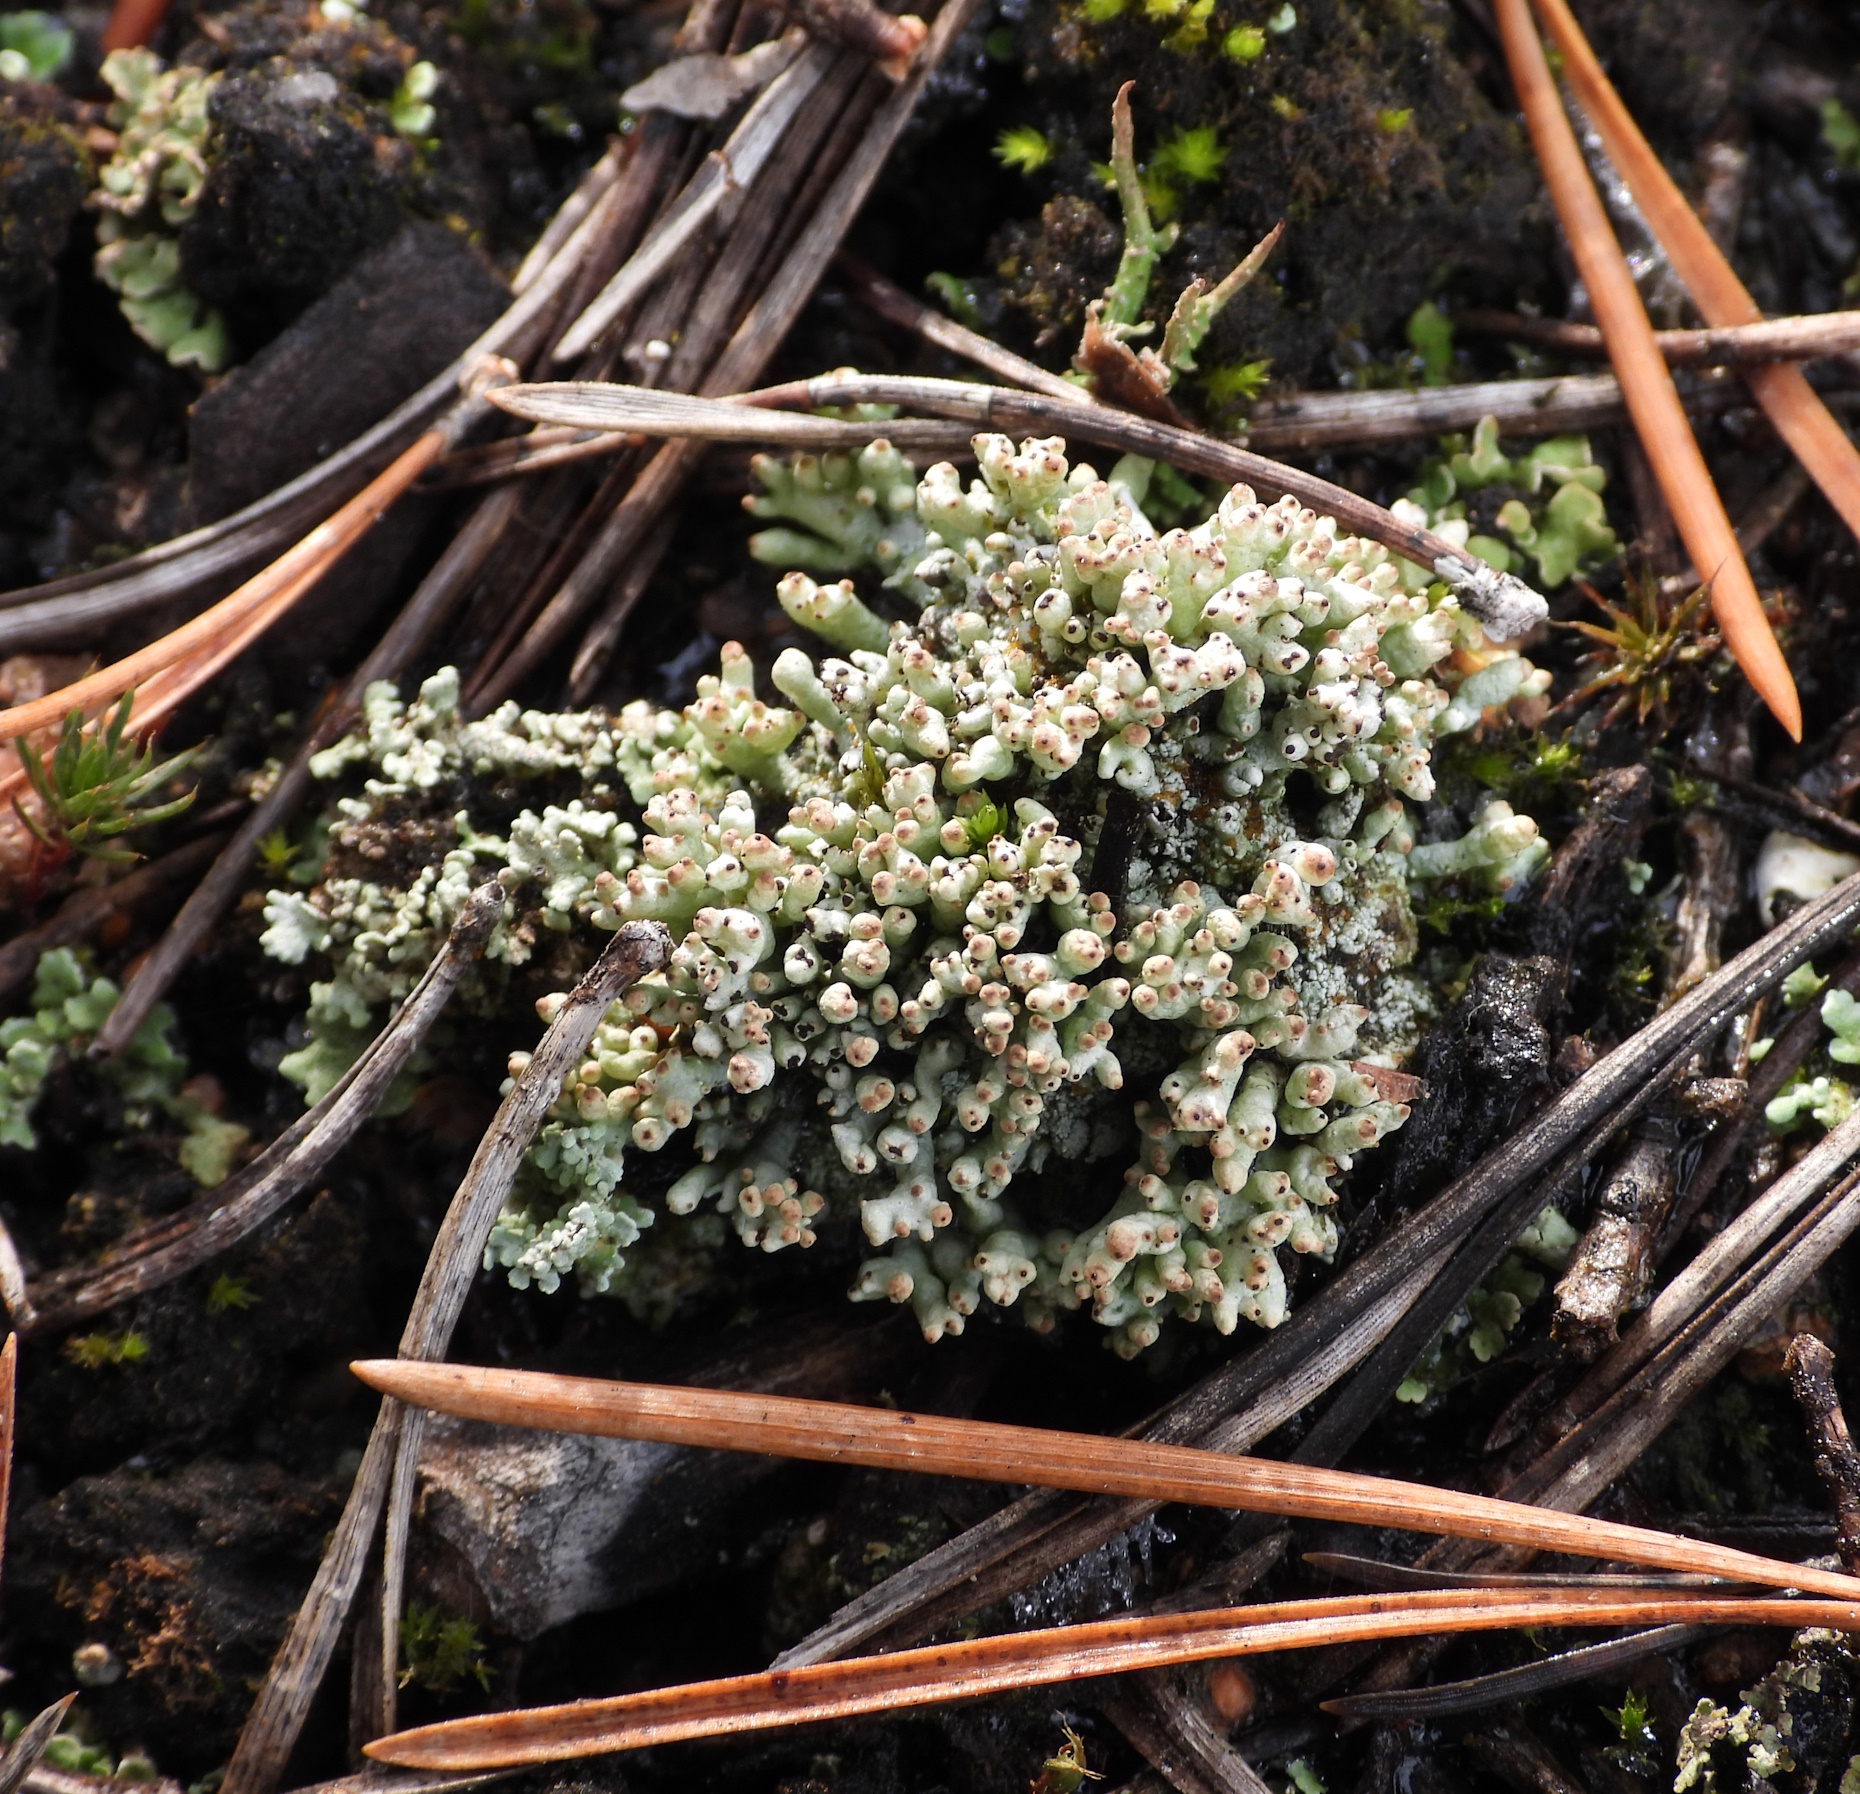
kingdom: Fungi
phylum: Ascomycota
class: Lecanoromycetes
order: Lecanorales
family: Cladoniaceae
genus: Pycnothelia
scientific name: Pycnothelia papillaria
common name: Nipple lichen
